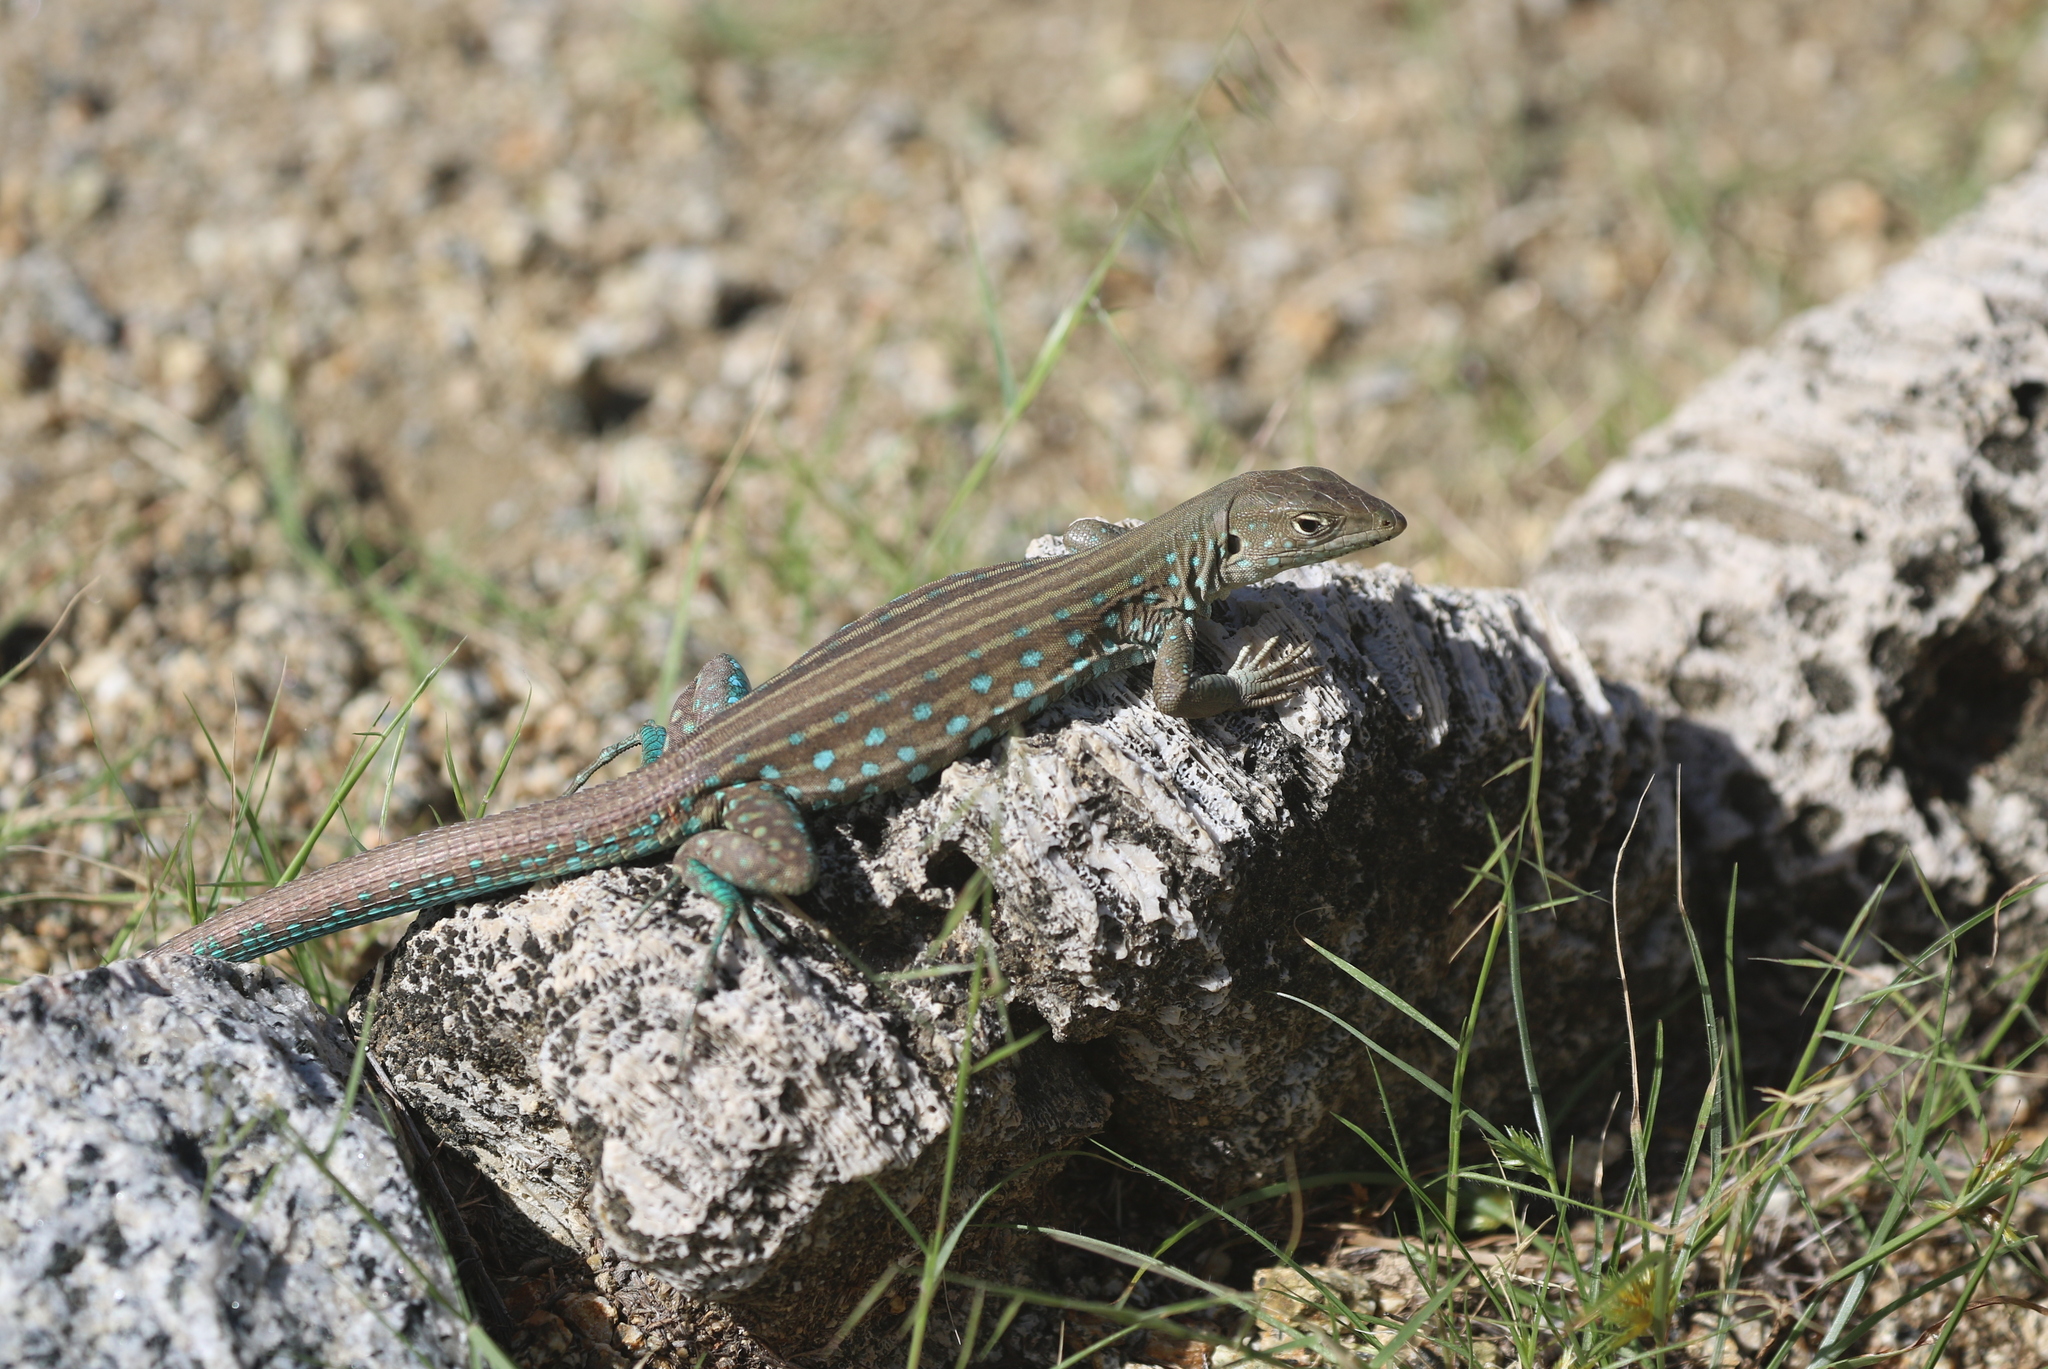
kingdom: Animalia
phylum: Chordata
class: Squamata
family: Teiidae
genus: Cnemidophorus
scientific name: Cnemidophorus arubensis
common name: Aruba whiptail
